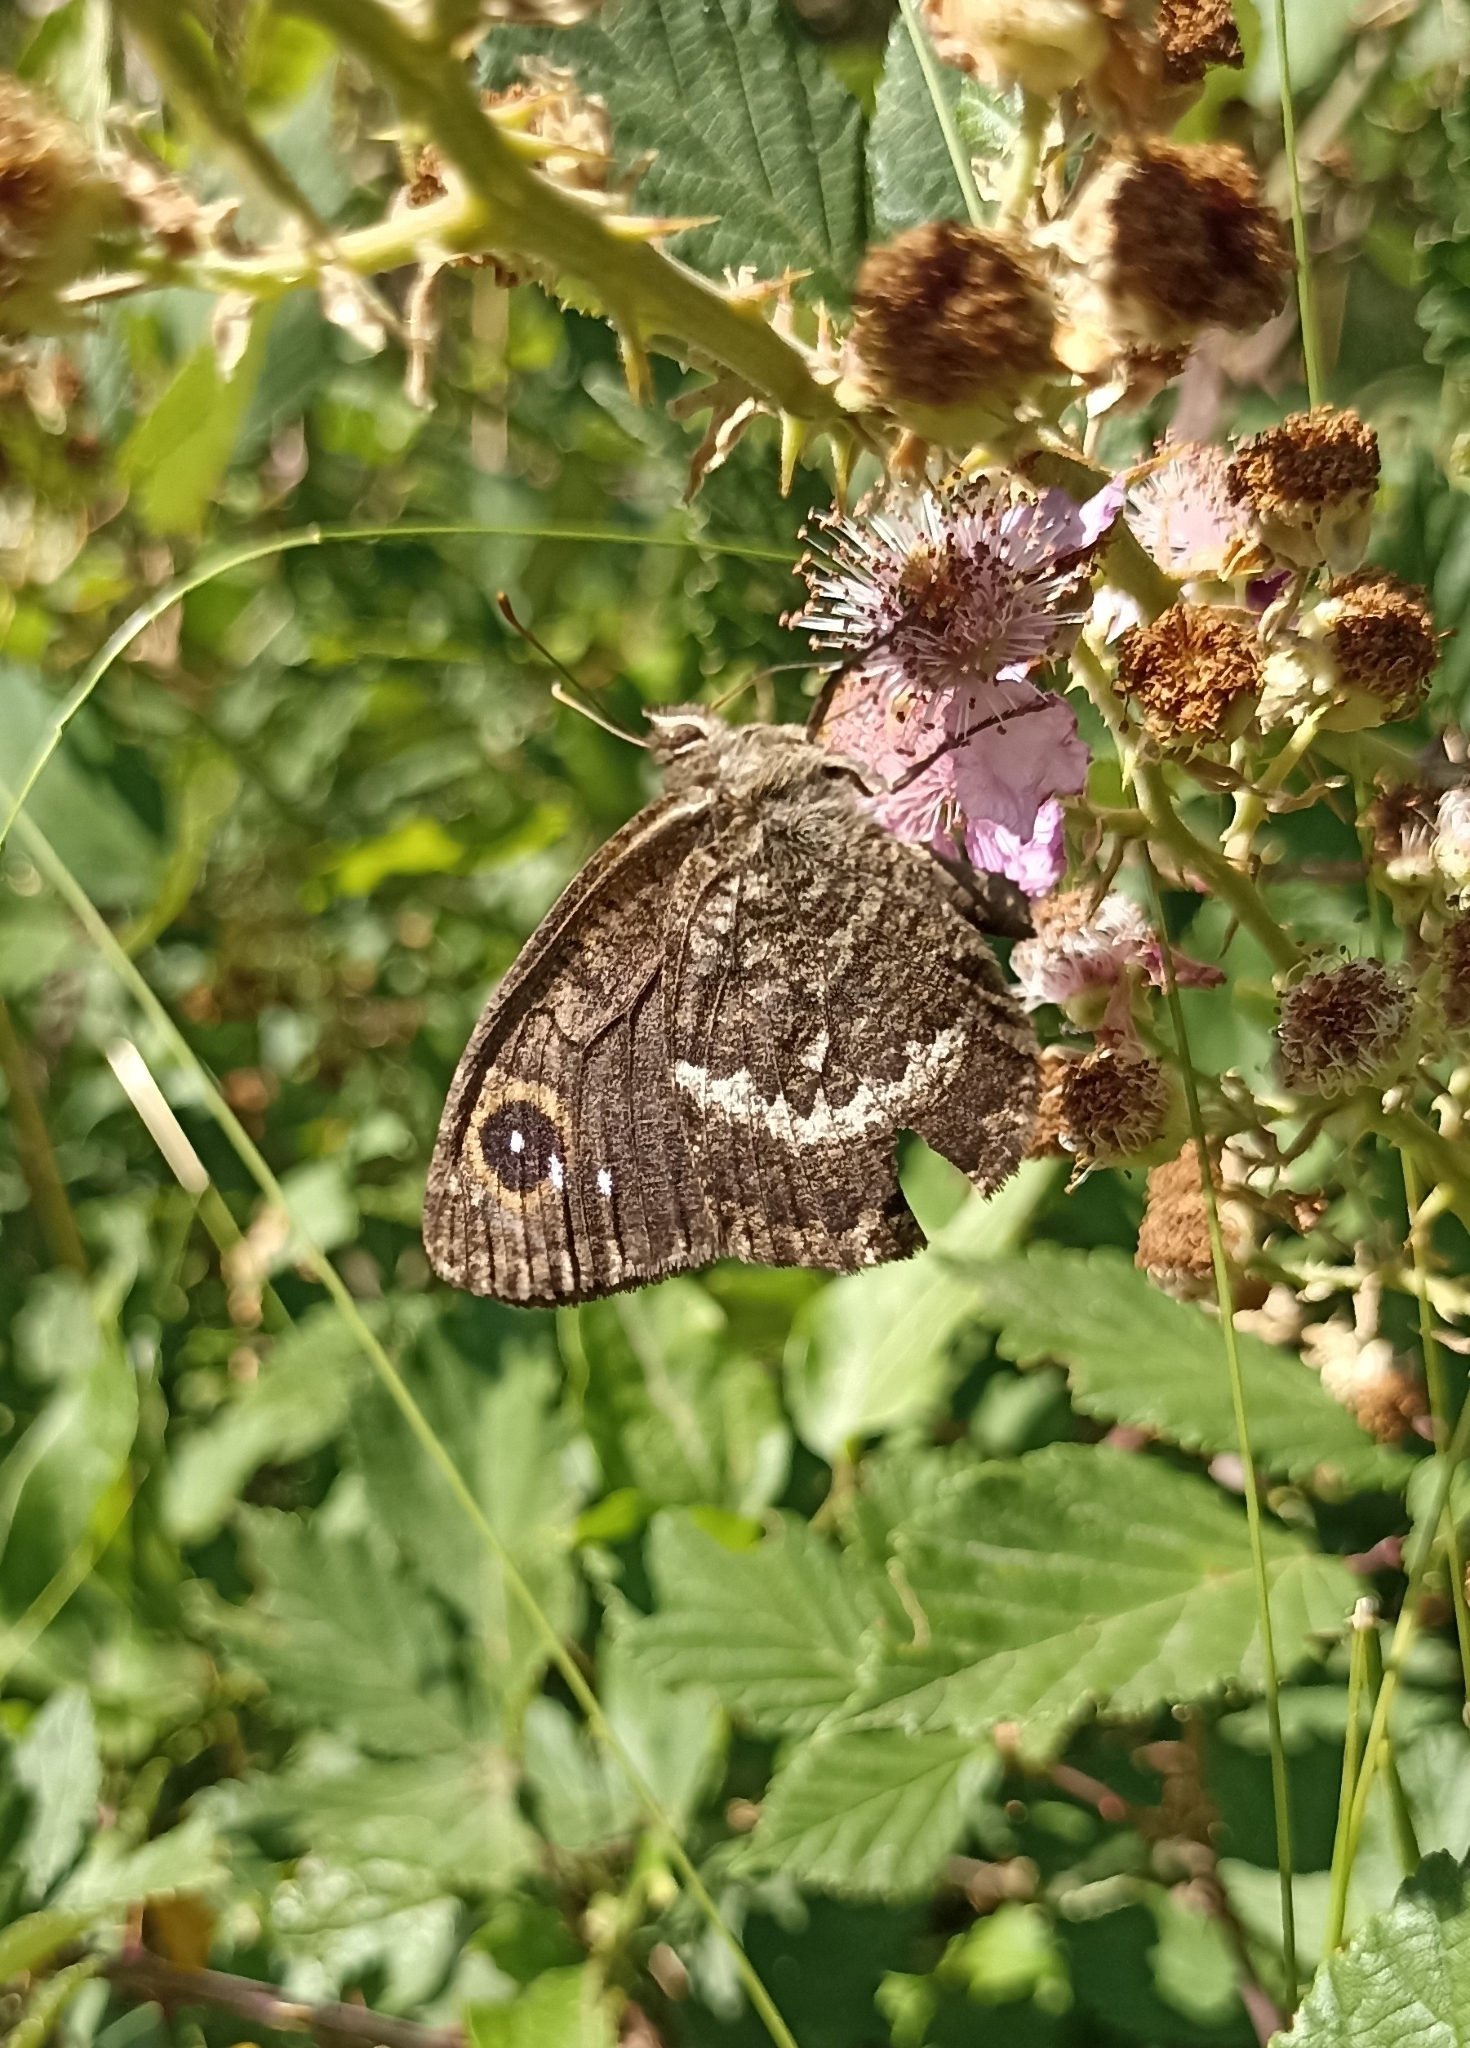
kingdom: Animalia
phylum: Arthropoda
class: Insecta
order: Lepidoptera
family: Nymphalidae
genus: Satyrus
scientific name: Satyrus actaea
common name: Black satyr
